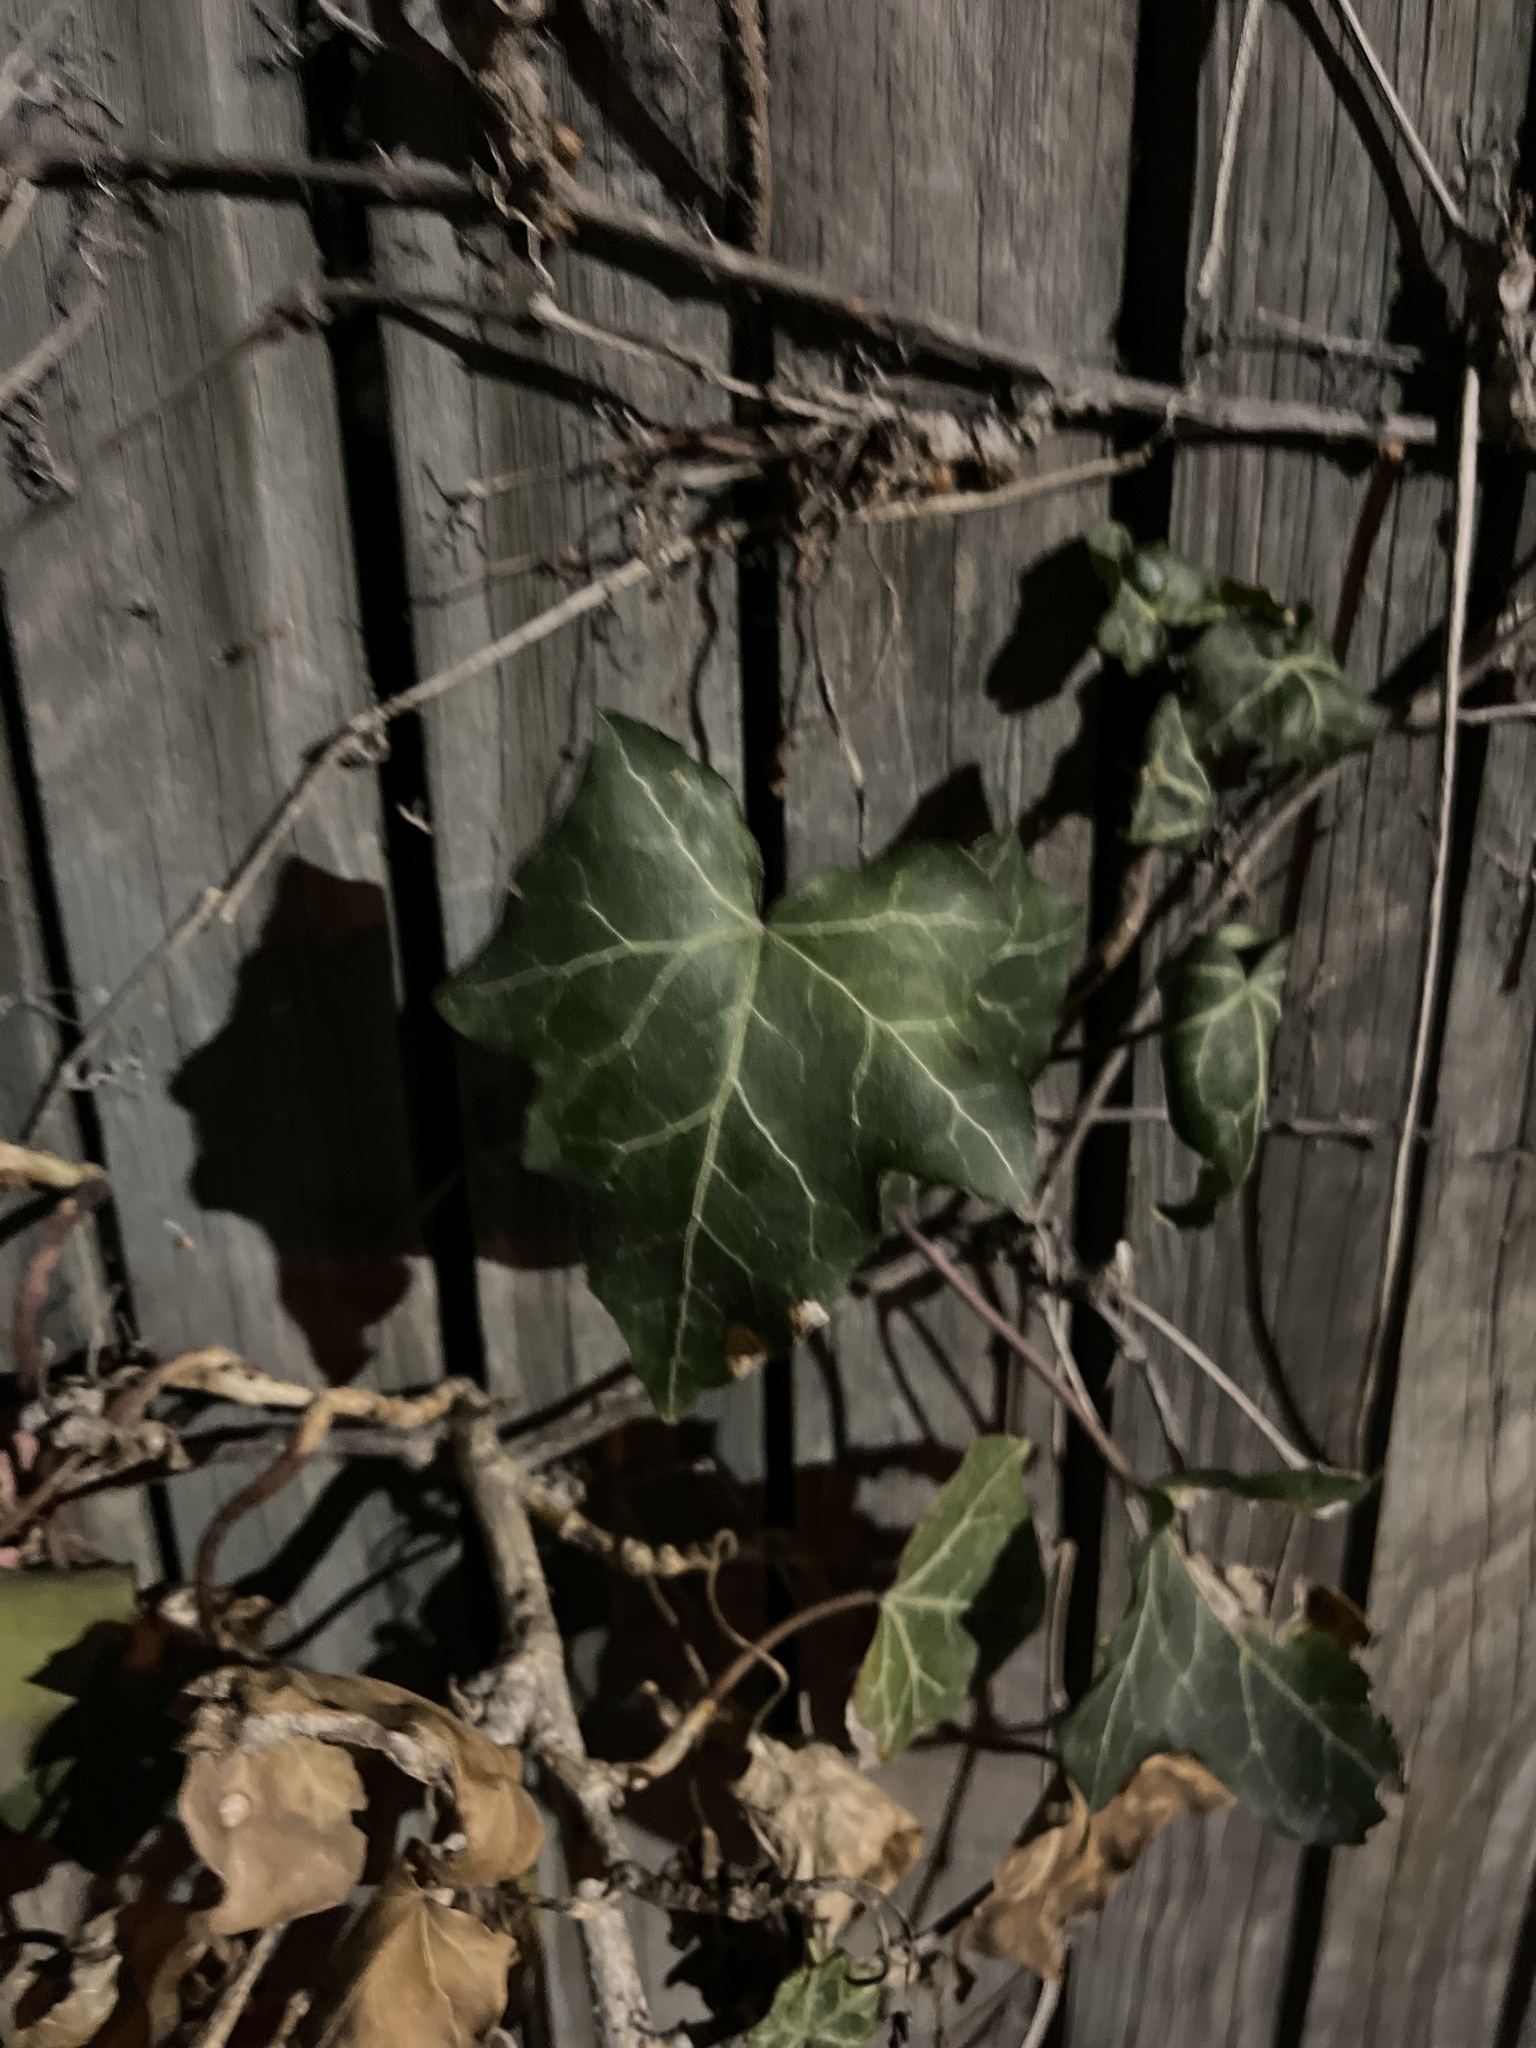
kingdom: Plantae
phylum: Tracheophyta
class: Magnoliopsida
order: Apiales
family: Araliaceae
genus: Hedera
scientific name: Hedera helix
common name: Ivy
